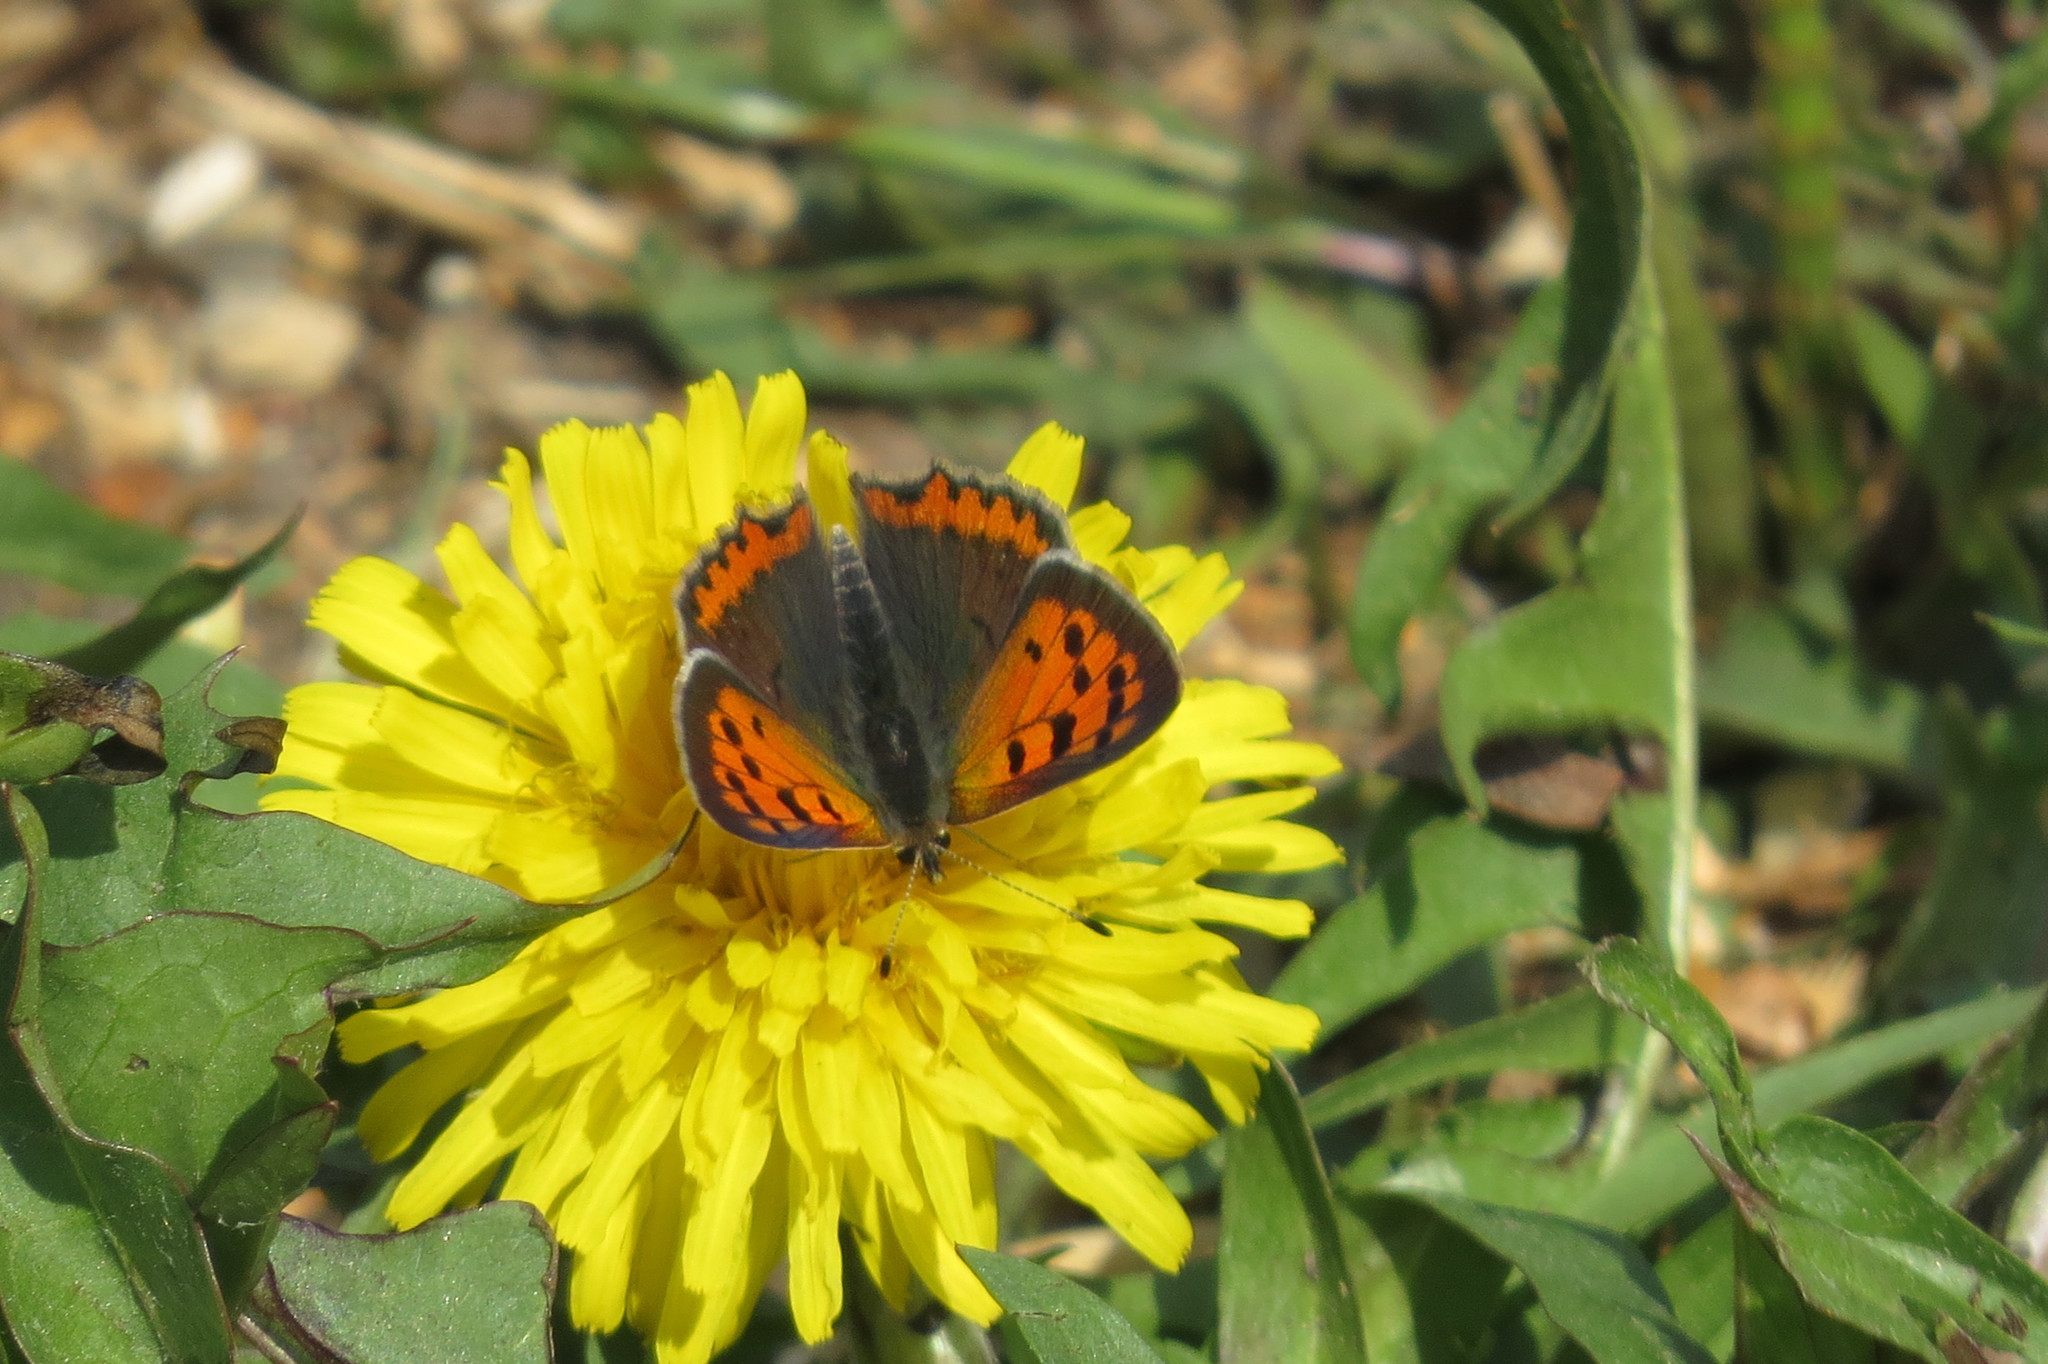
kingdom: Animalia
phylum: Arthropoda
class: Insecta
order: Lepidoptera
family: Lycaenidae
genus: Lycaena
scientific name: Lycaena phlaeas
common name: Small copper
